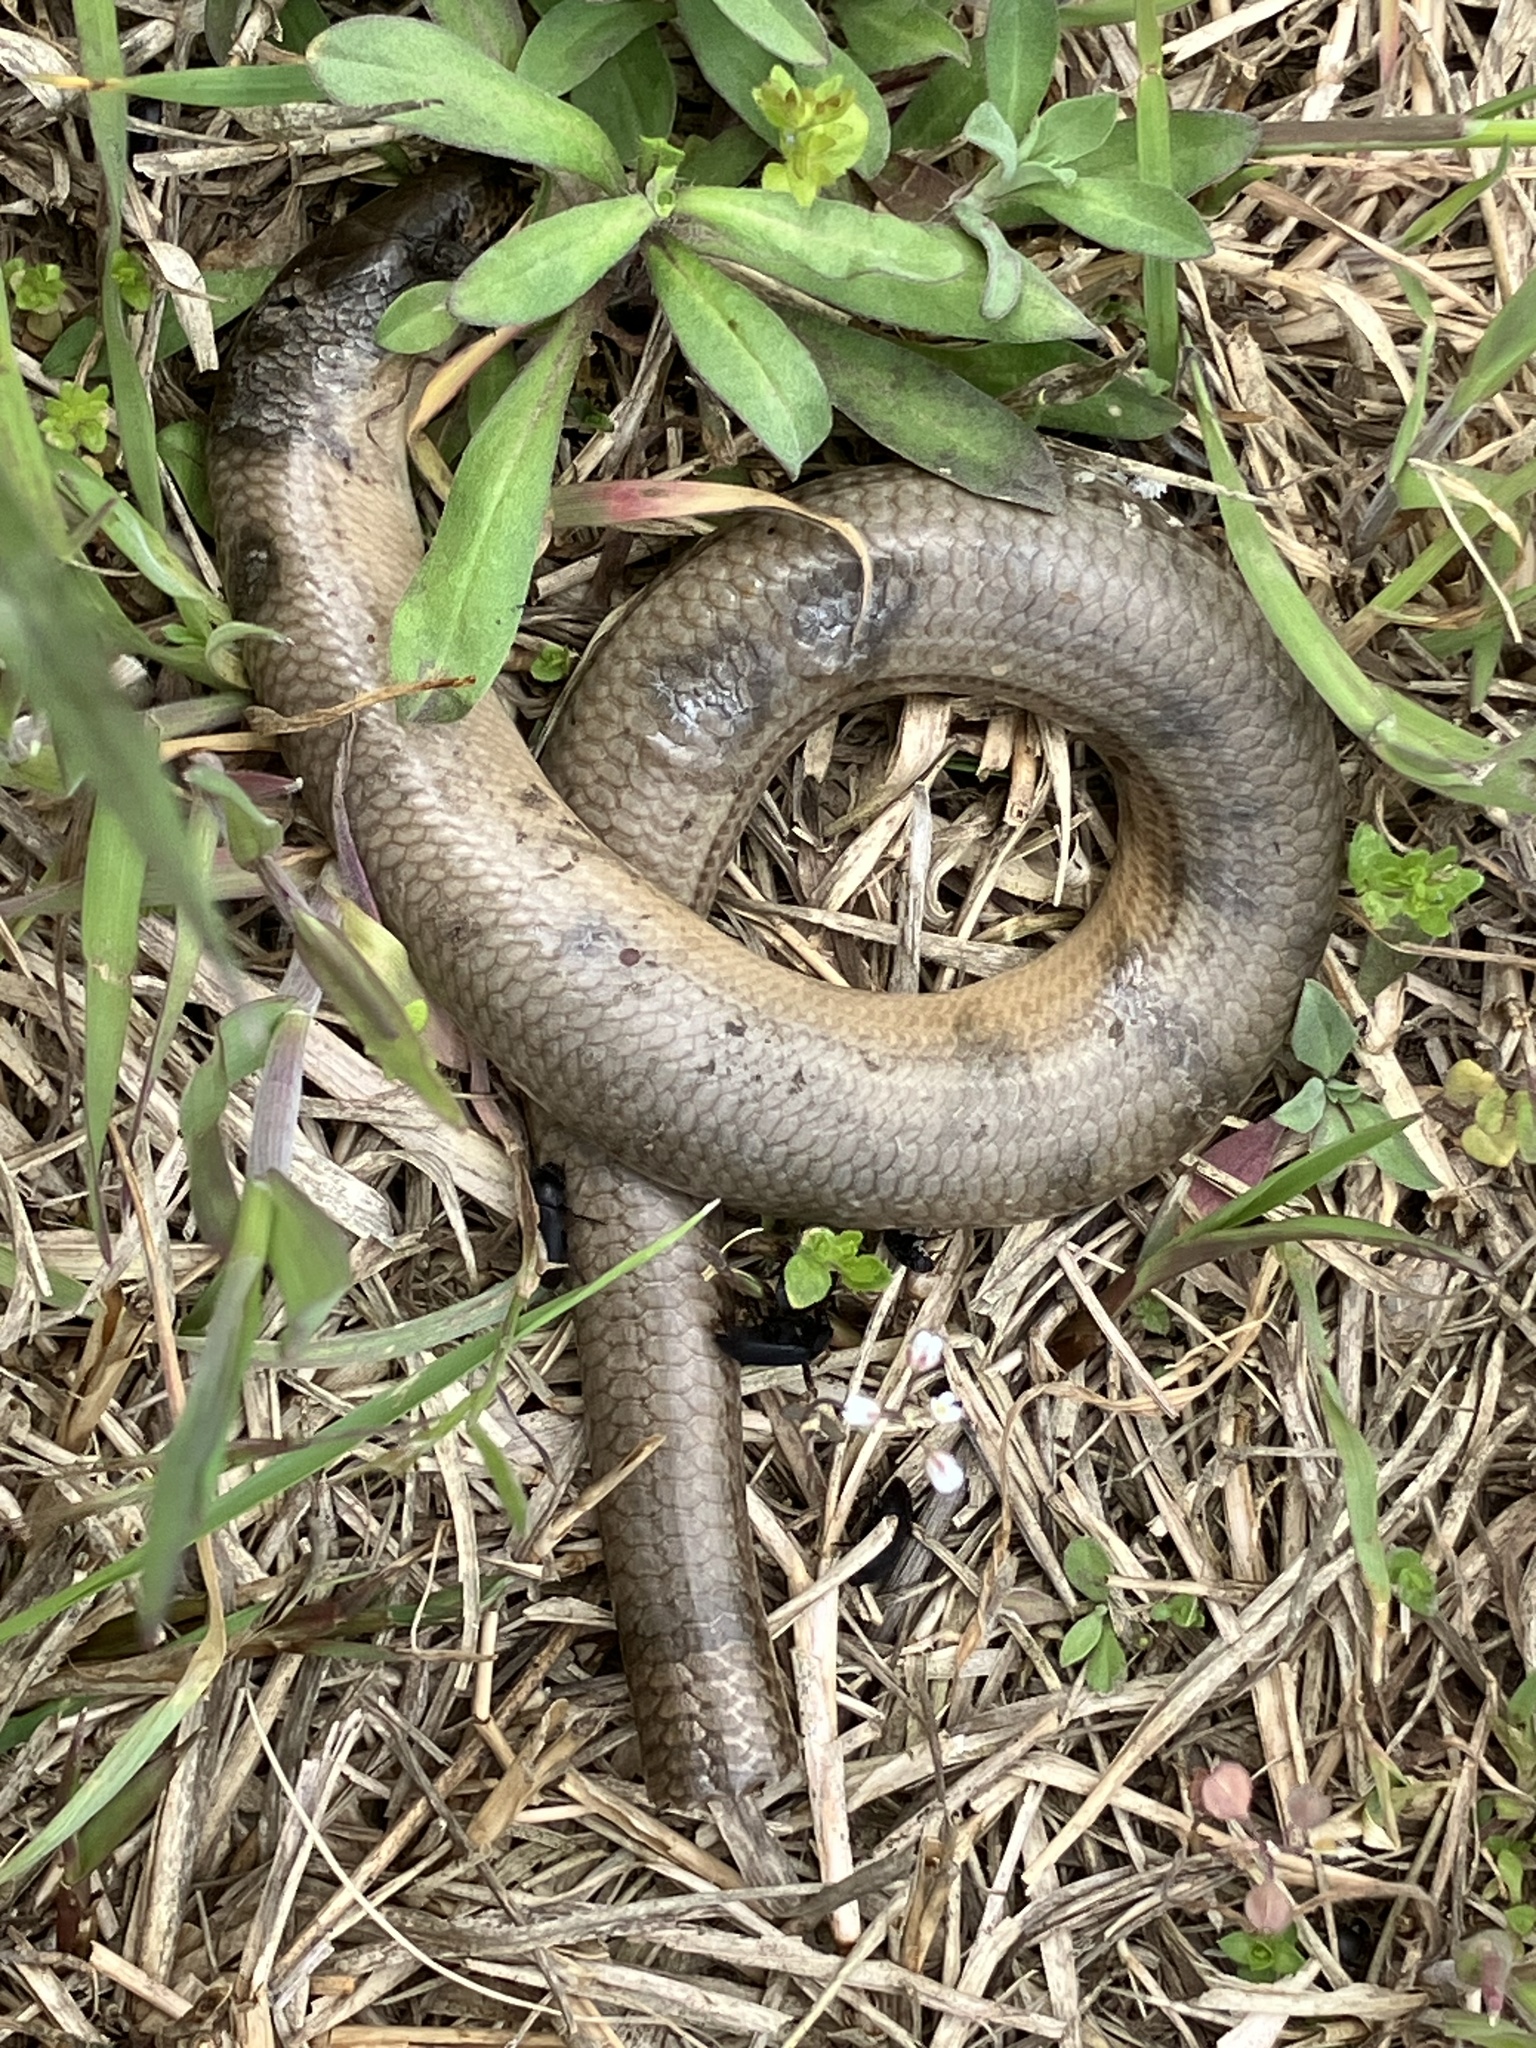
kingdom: Animalia
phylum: Chordata
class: Squamata
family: Anguidae
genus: Anguis
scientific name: Anguis fragilis
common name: Slow worm
